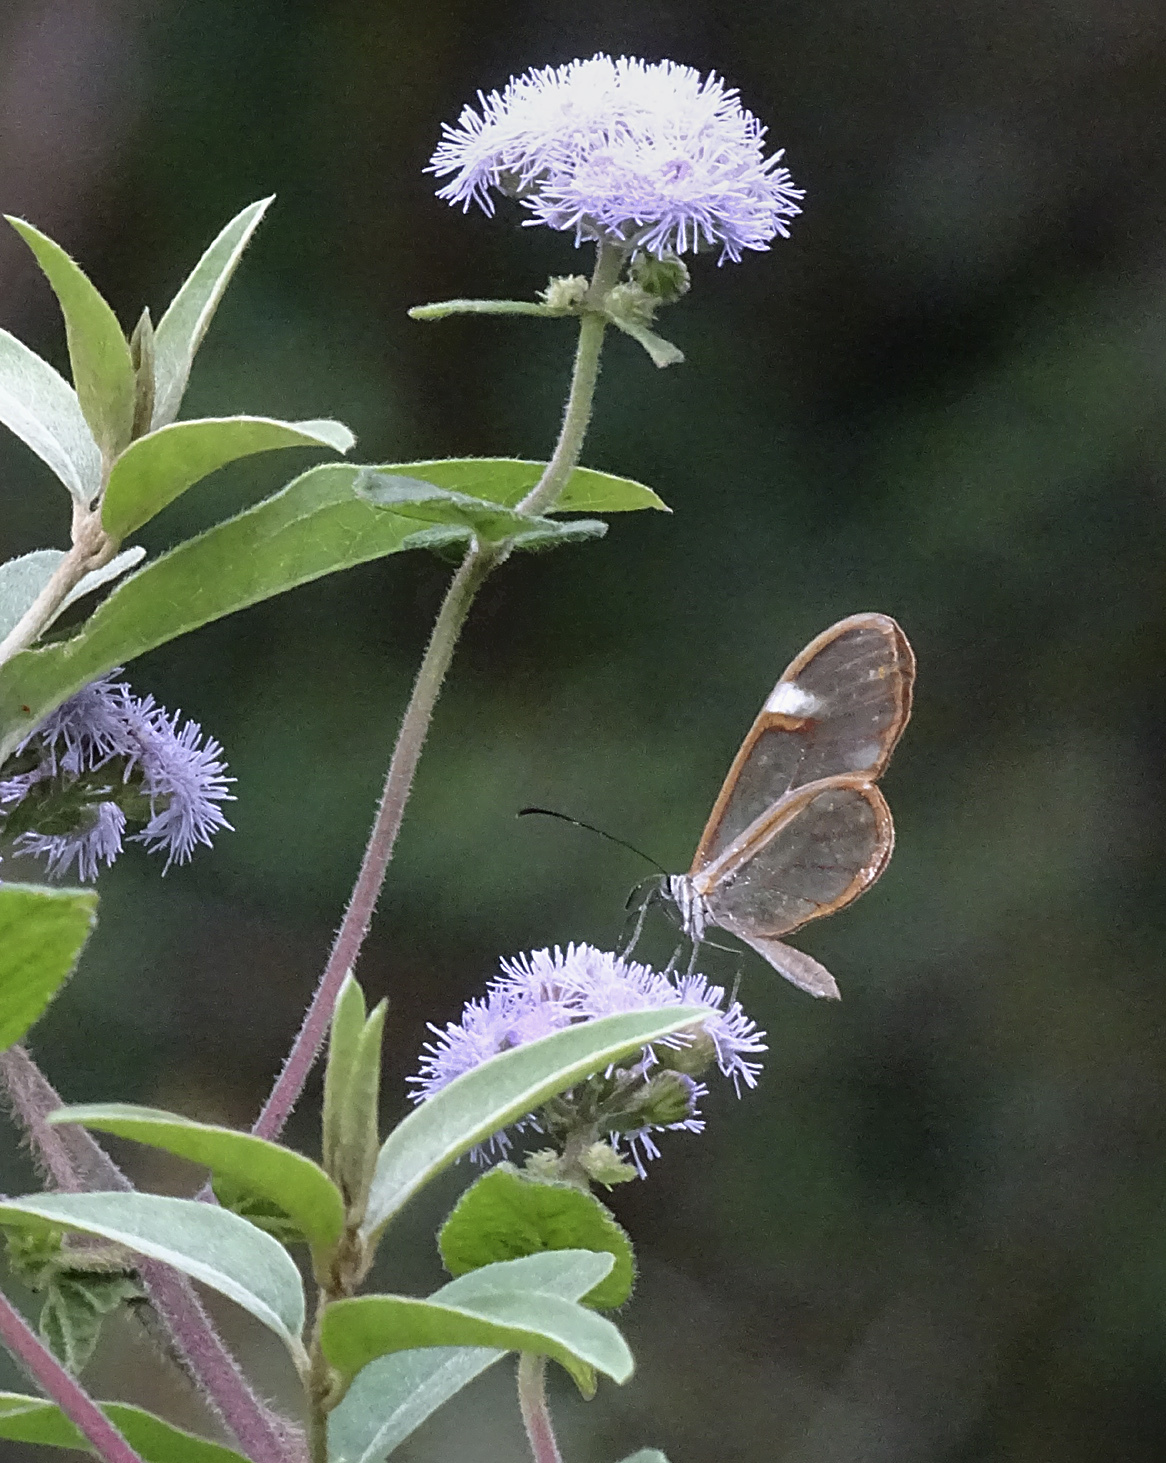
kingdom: Animalia
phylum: Arthropoda
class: Insecta
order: Lepidoptera
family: Nymphalidae
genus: Episcada
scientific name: Episcada salvinia
